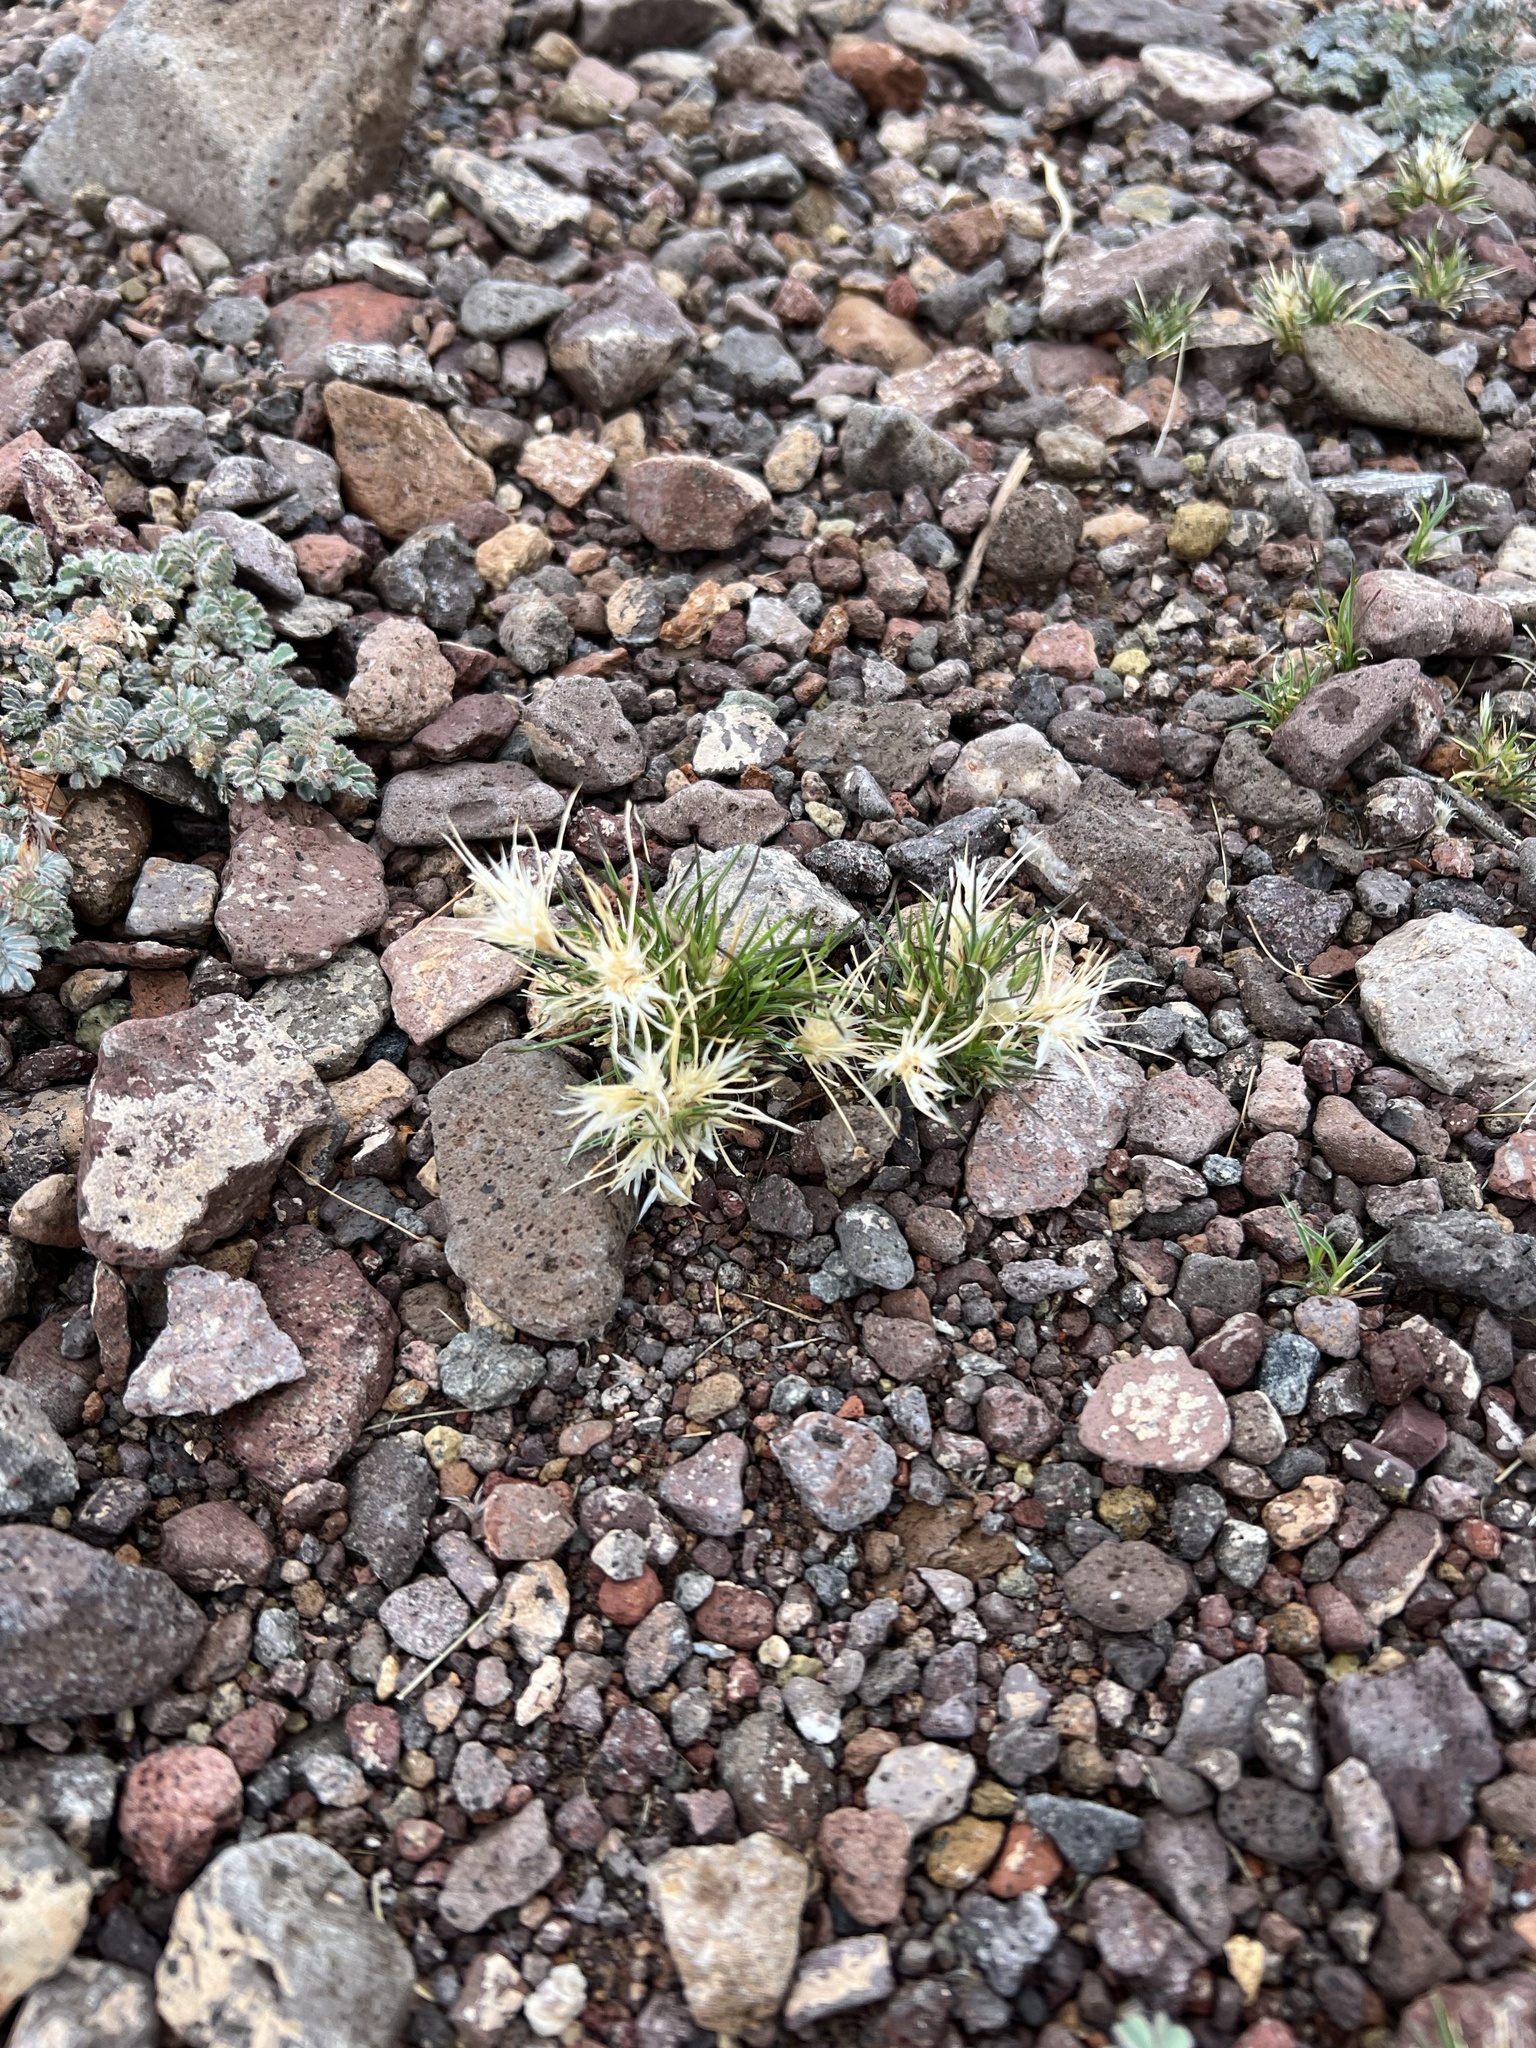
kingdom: Plantae
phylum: Tracheophyta
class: Liliopsida
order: Poales
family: Poaceae
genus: Dasyochloa
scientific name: Dasyochloa pulchella
